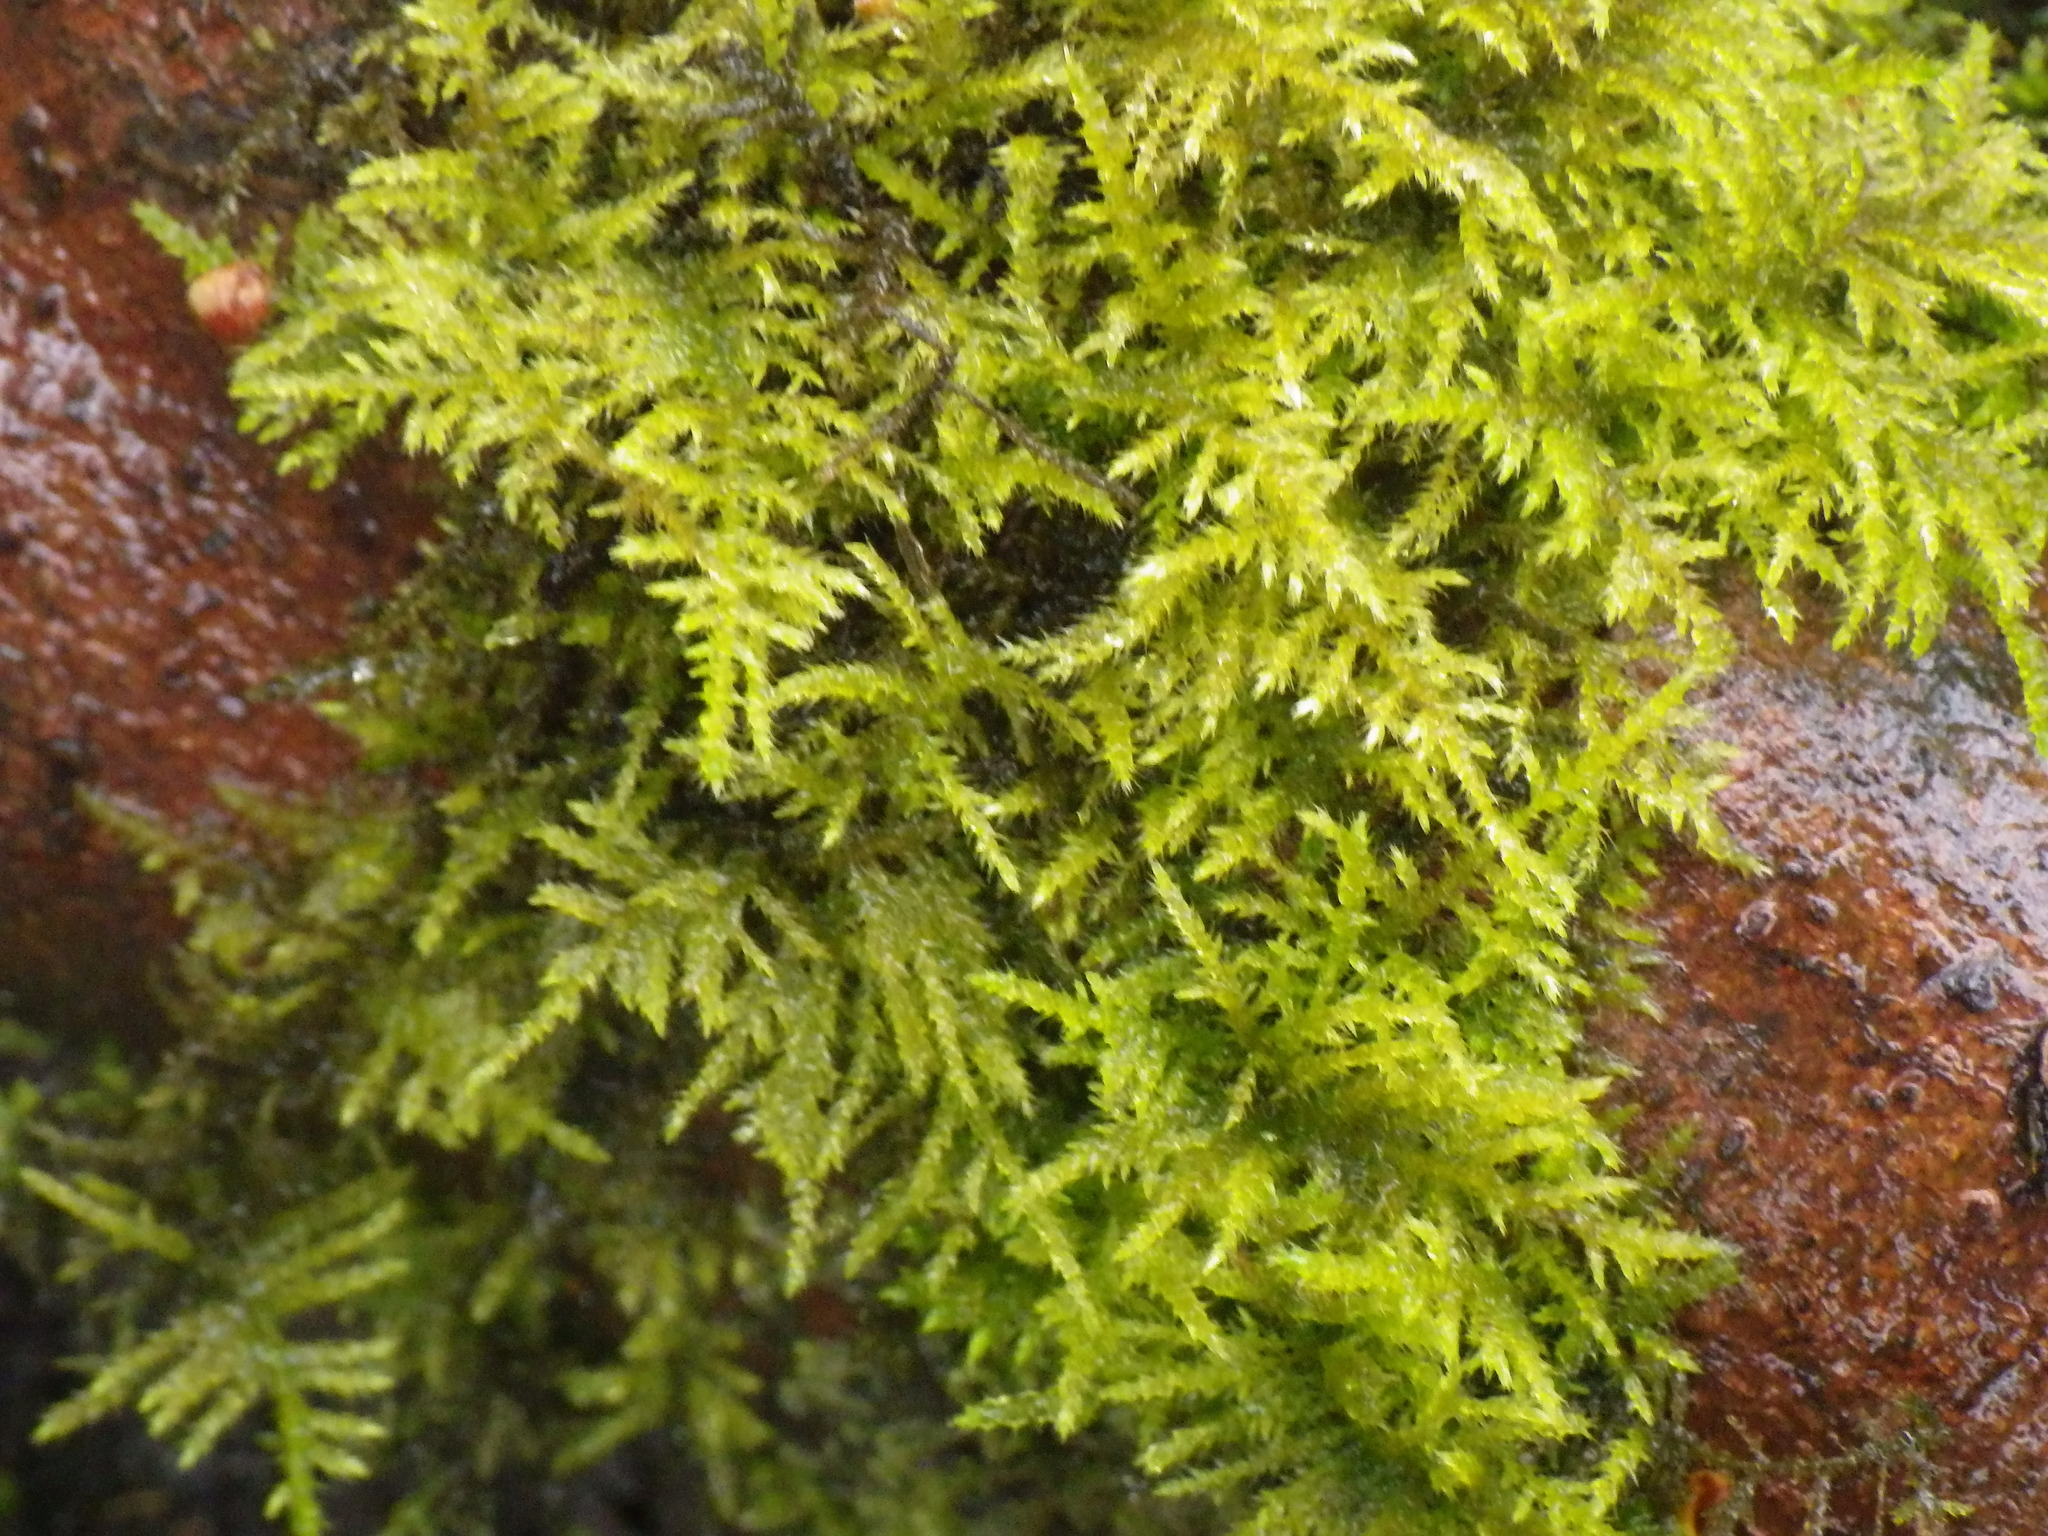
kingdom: Plantae
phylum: Bryophyta
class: Bryopsida
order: Hypnales
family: Brachytheciaceae
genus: Kindbergia
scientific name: Kindbergia praelonga
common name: Slender beaked moss
